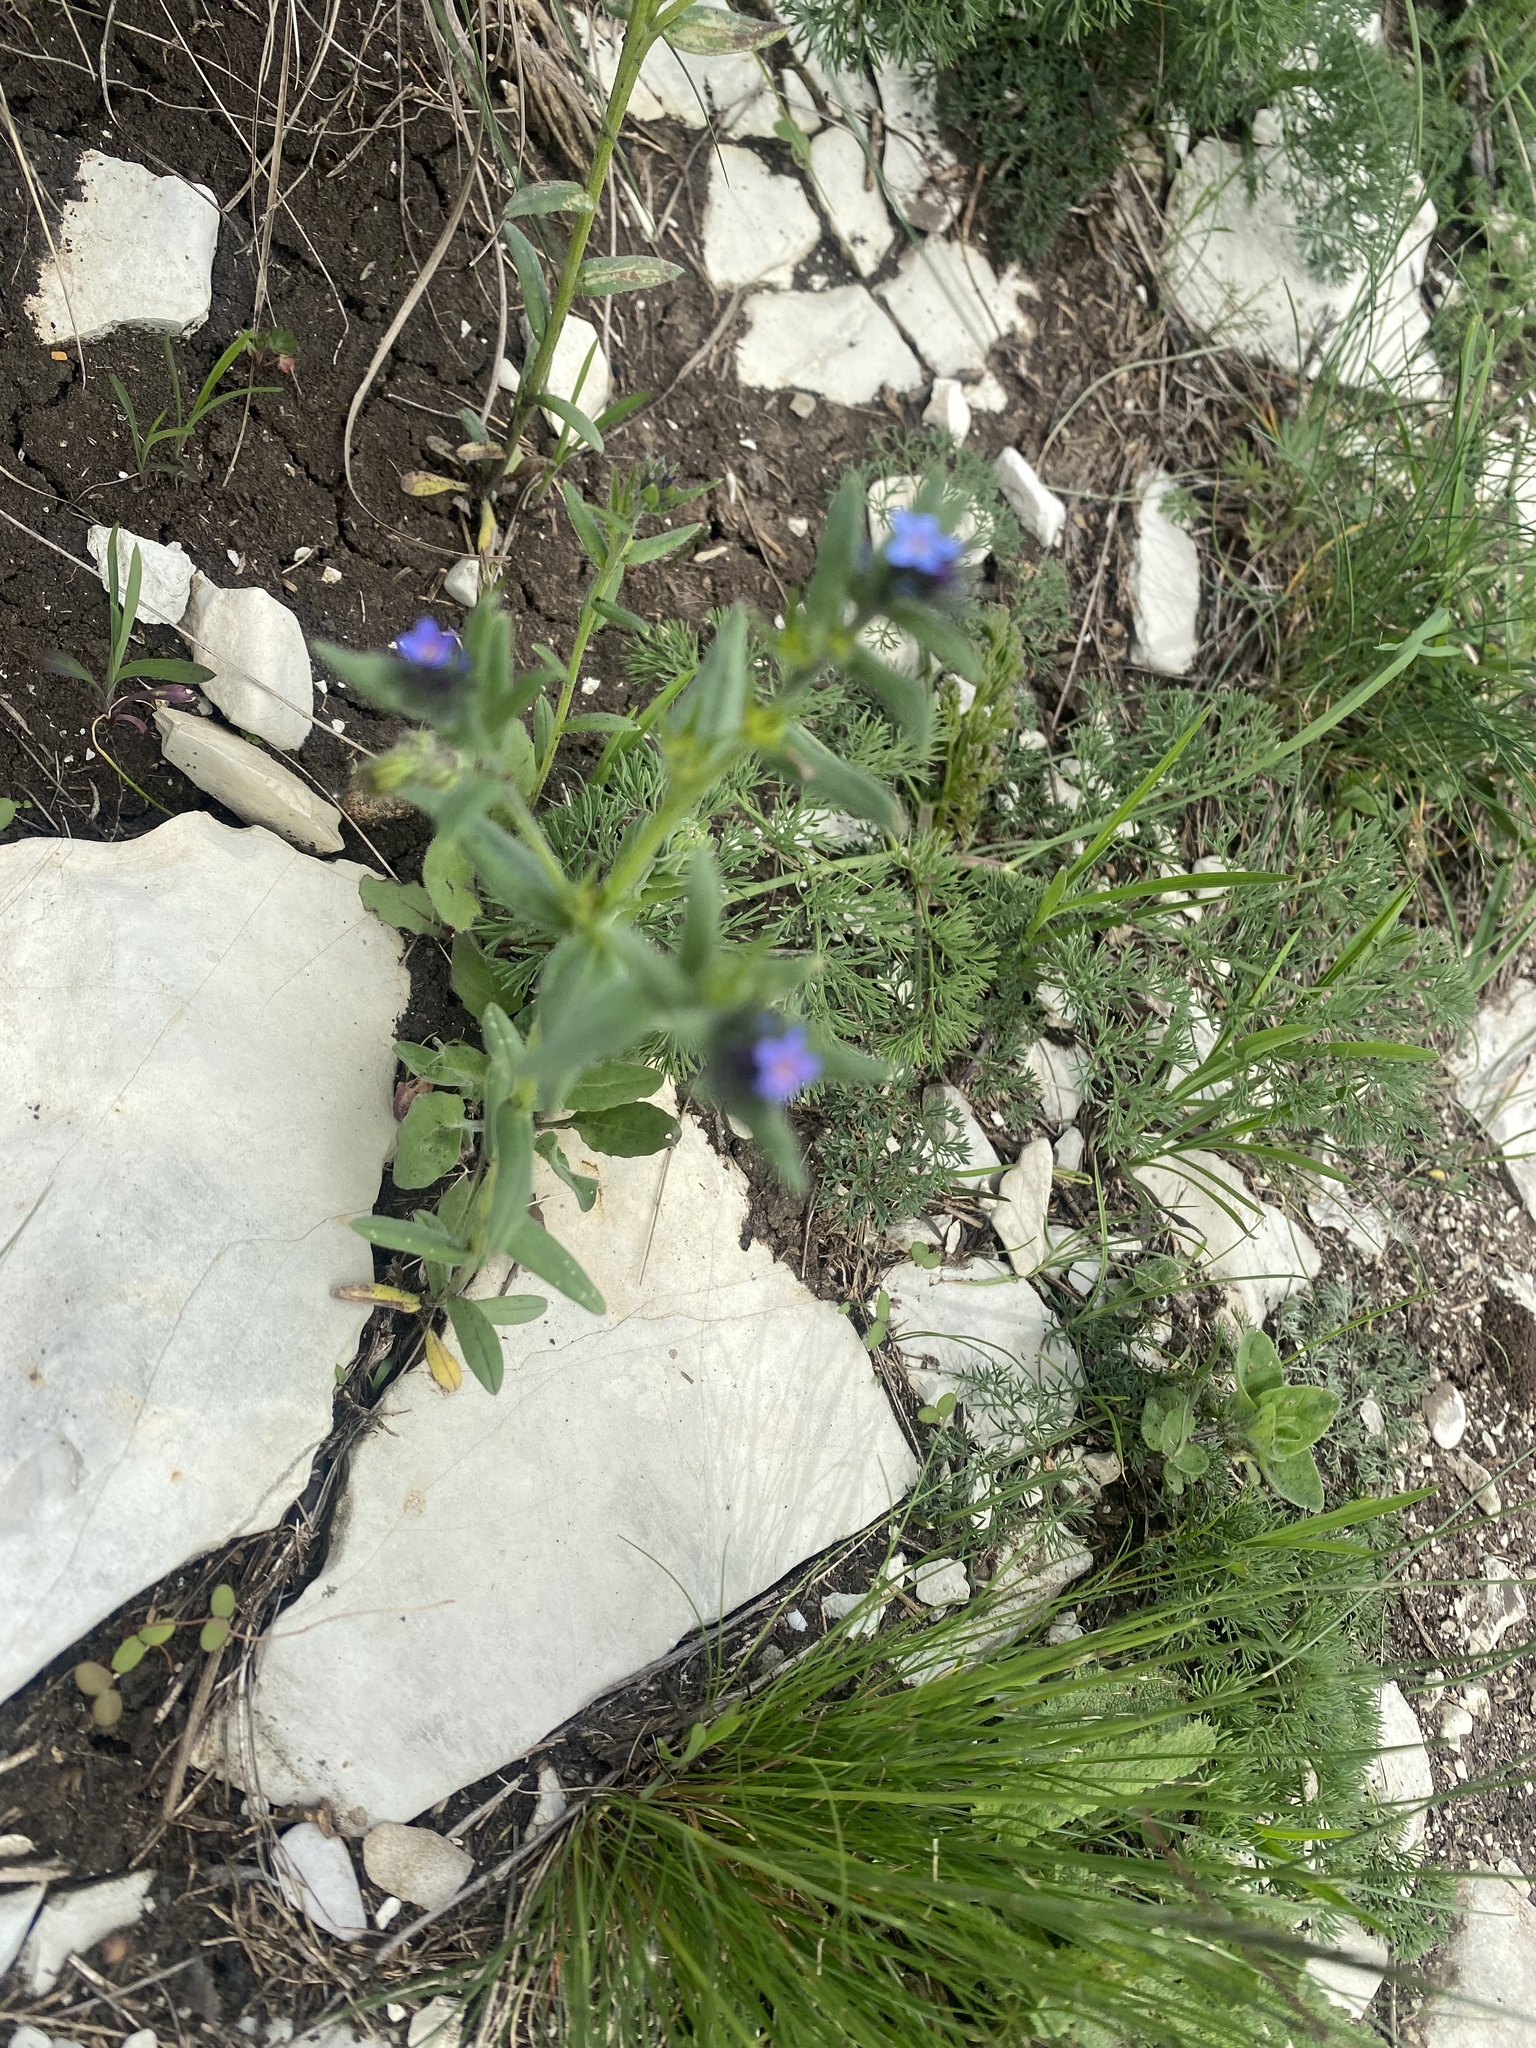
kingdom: Plantae
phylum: Tracheophyta
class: Magnoliopsida
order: Ericales
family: Primulaceae
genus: Lysimachia
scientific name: Lysimachia foemina
